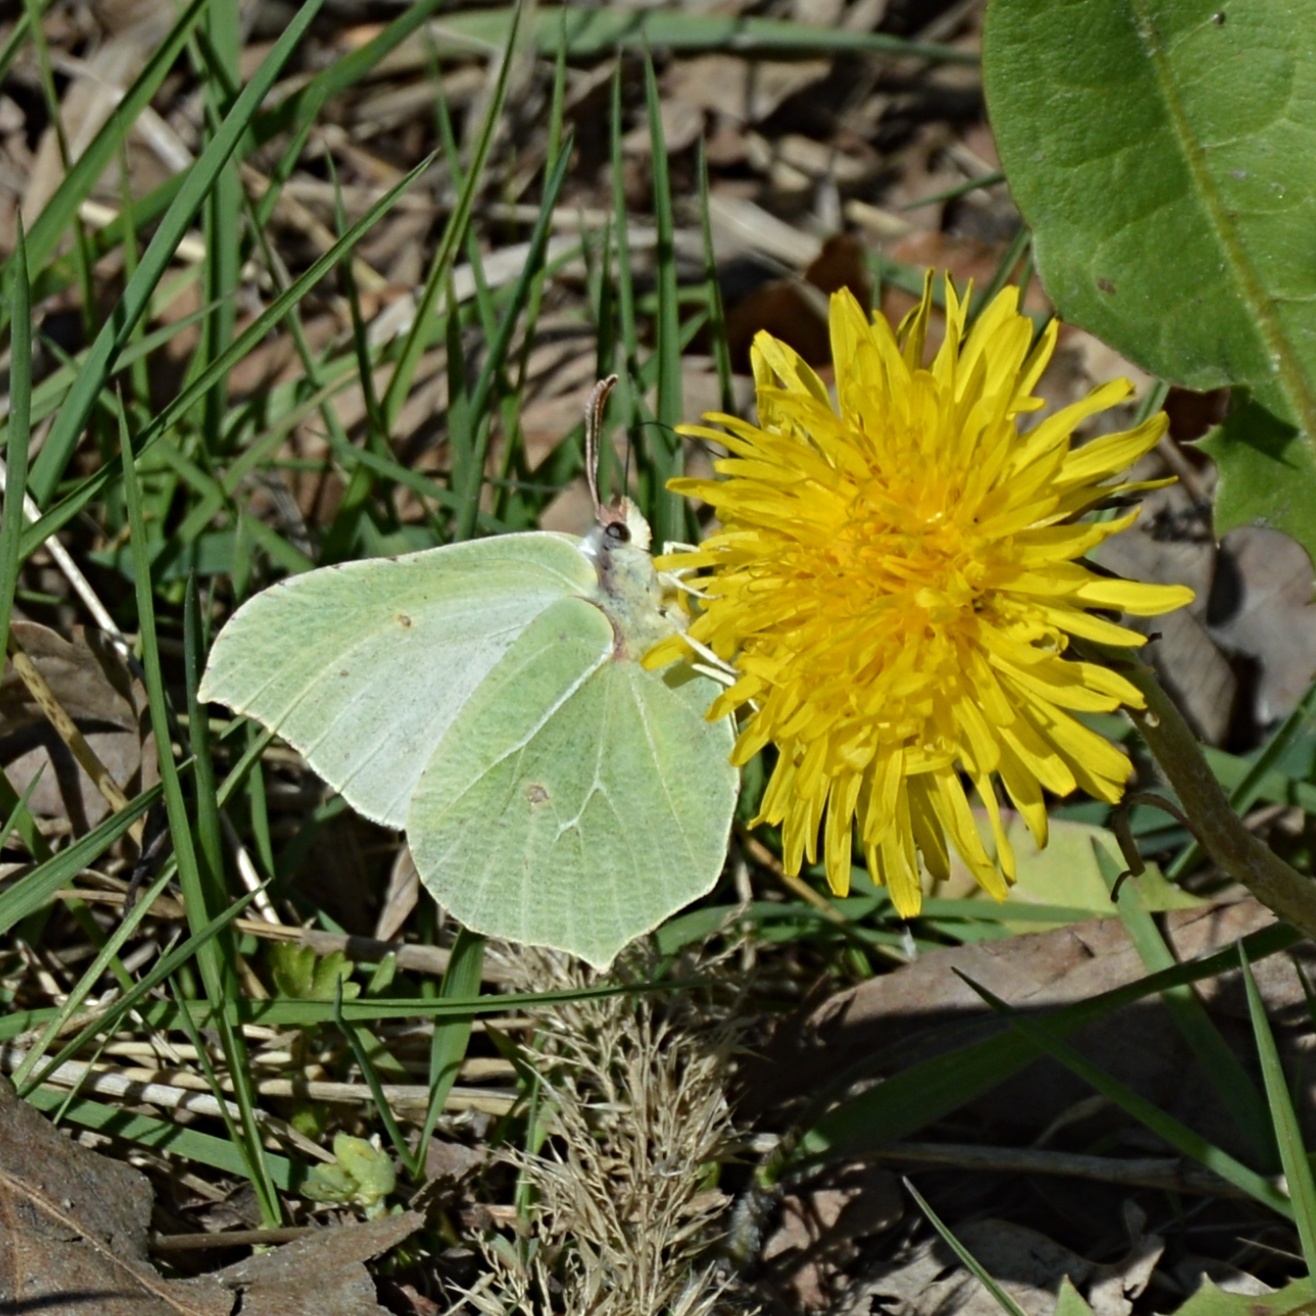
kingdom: Animalia
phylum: Arthropoda
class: Insecta
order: Lepidoptera
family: Pieridae
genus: Gonepteryx
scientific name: Gonepteryx rhamni
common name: Brimstone
